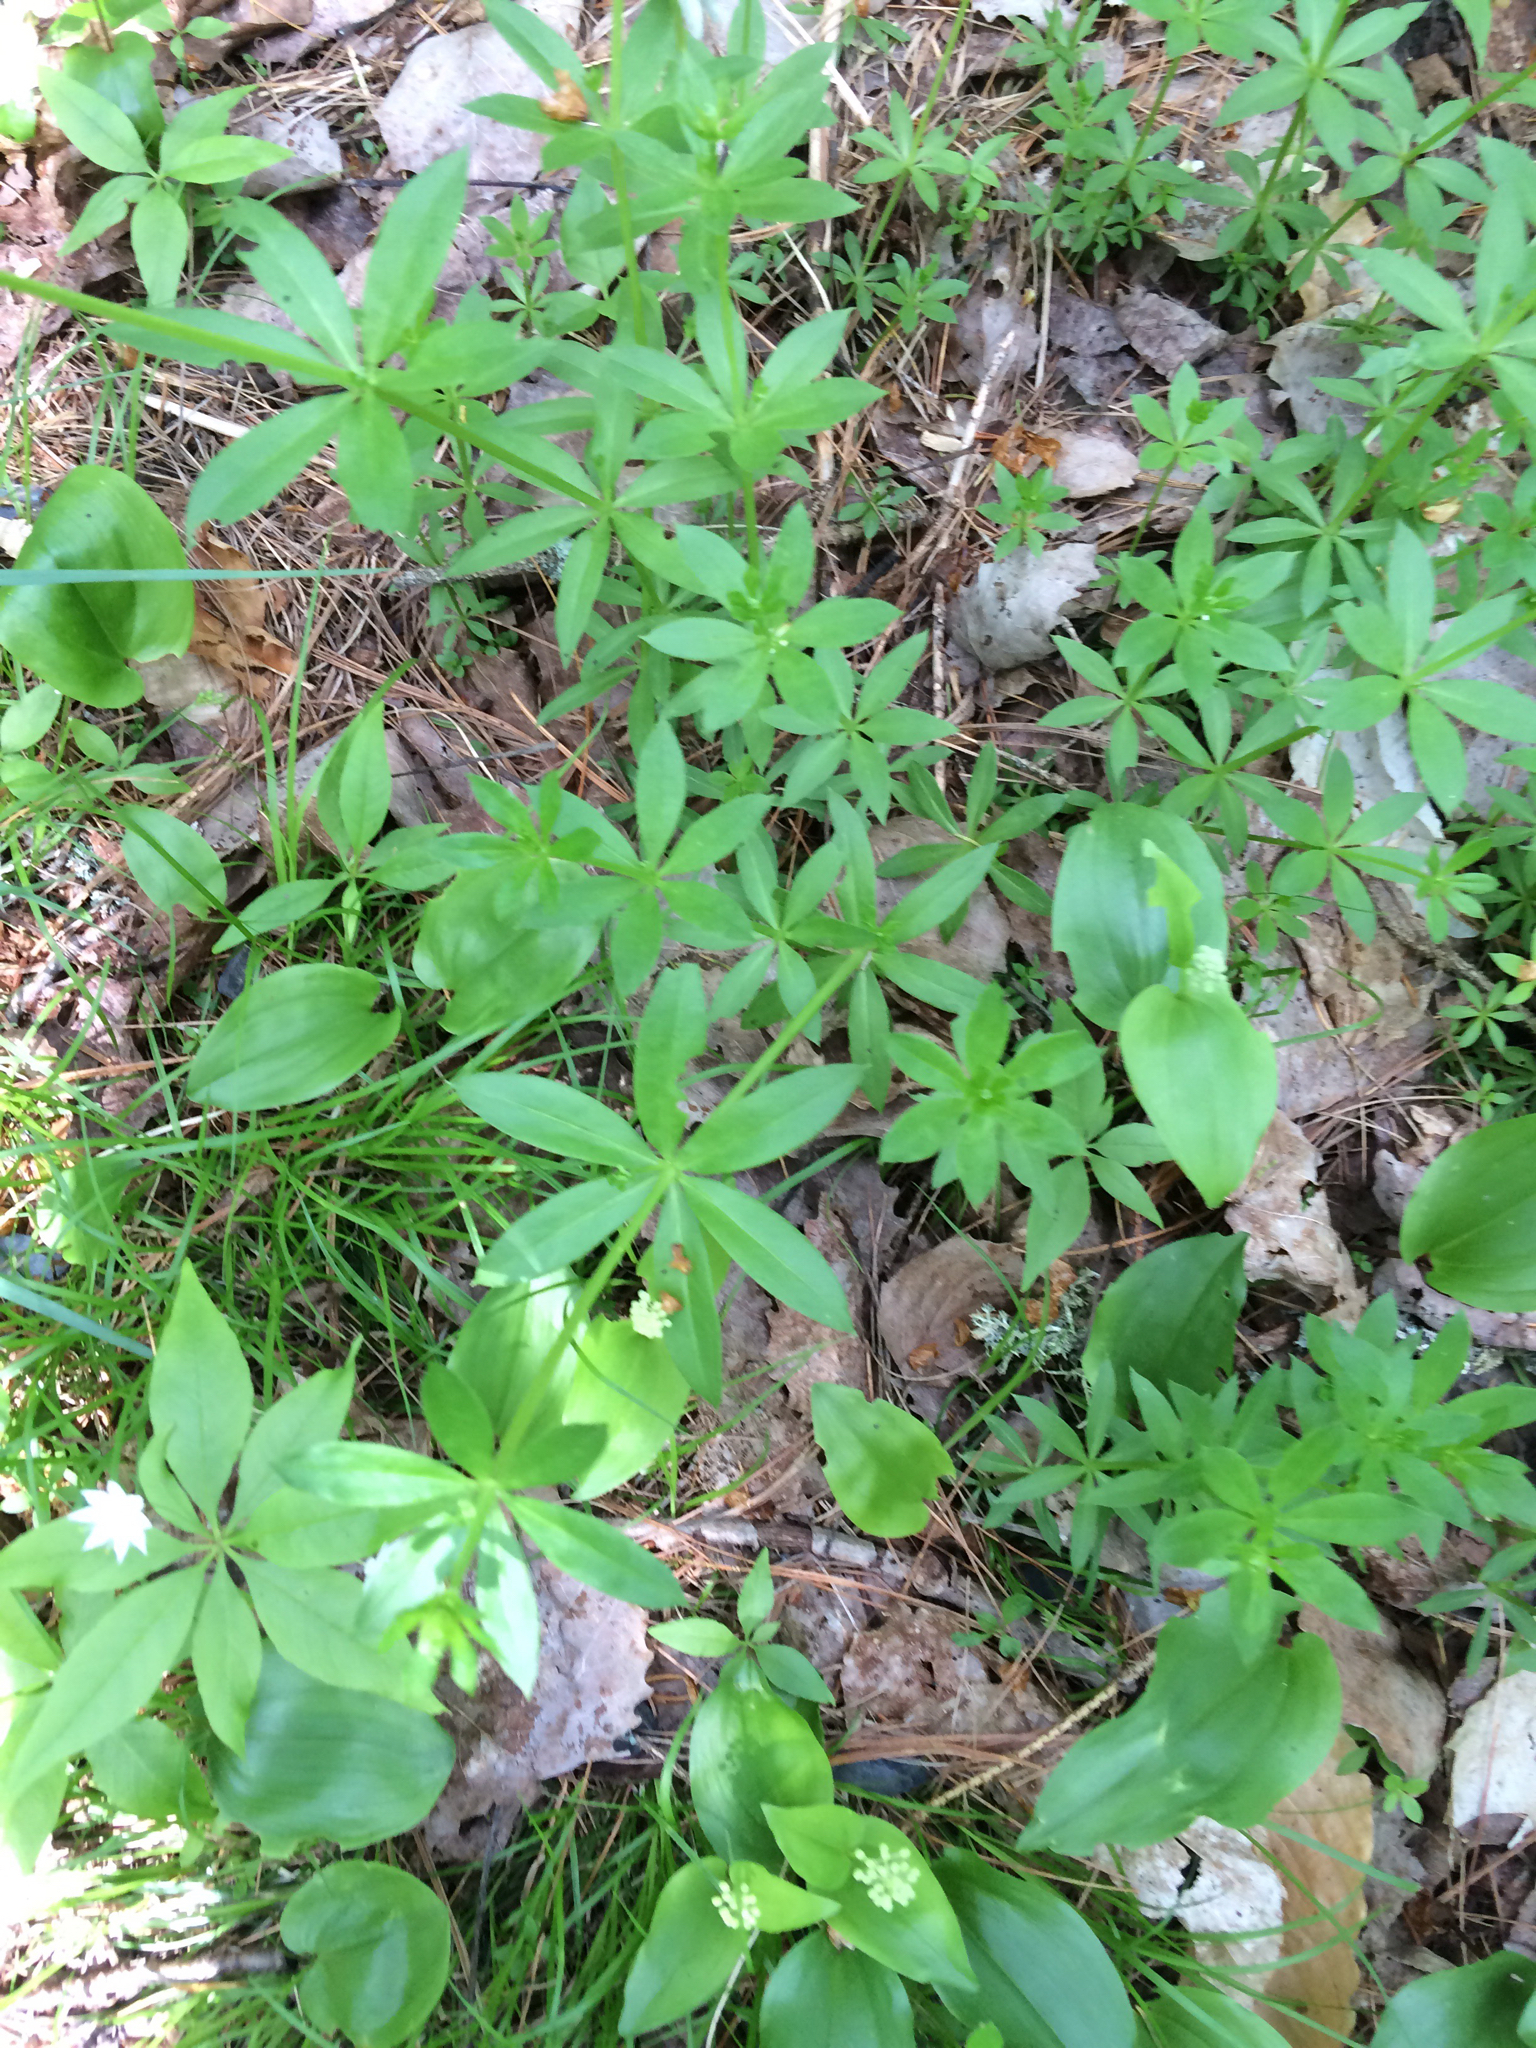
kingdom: Plantae
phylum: Tracheophyta
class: Magnoliopsida
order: Gentianales
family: Rubiaceae
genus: Galium
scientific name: Galium triflorum
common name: Fragrant bedstraw
